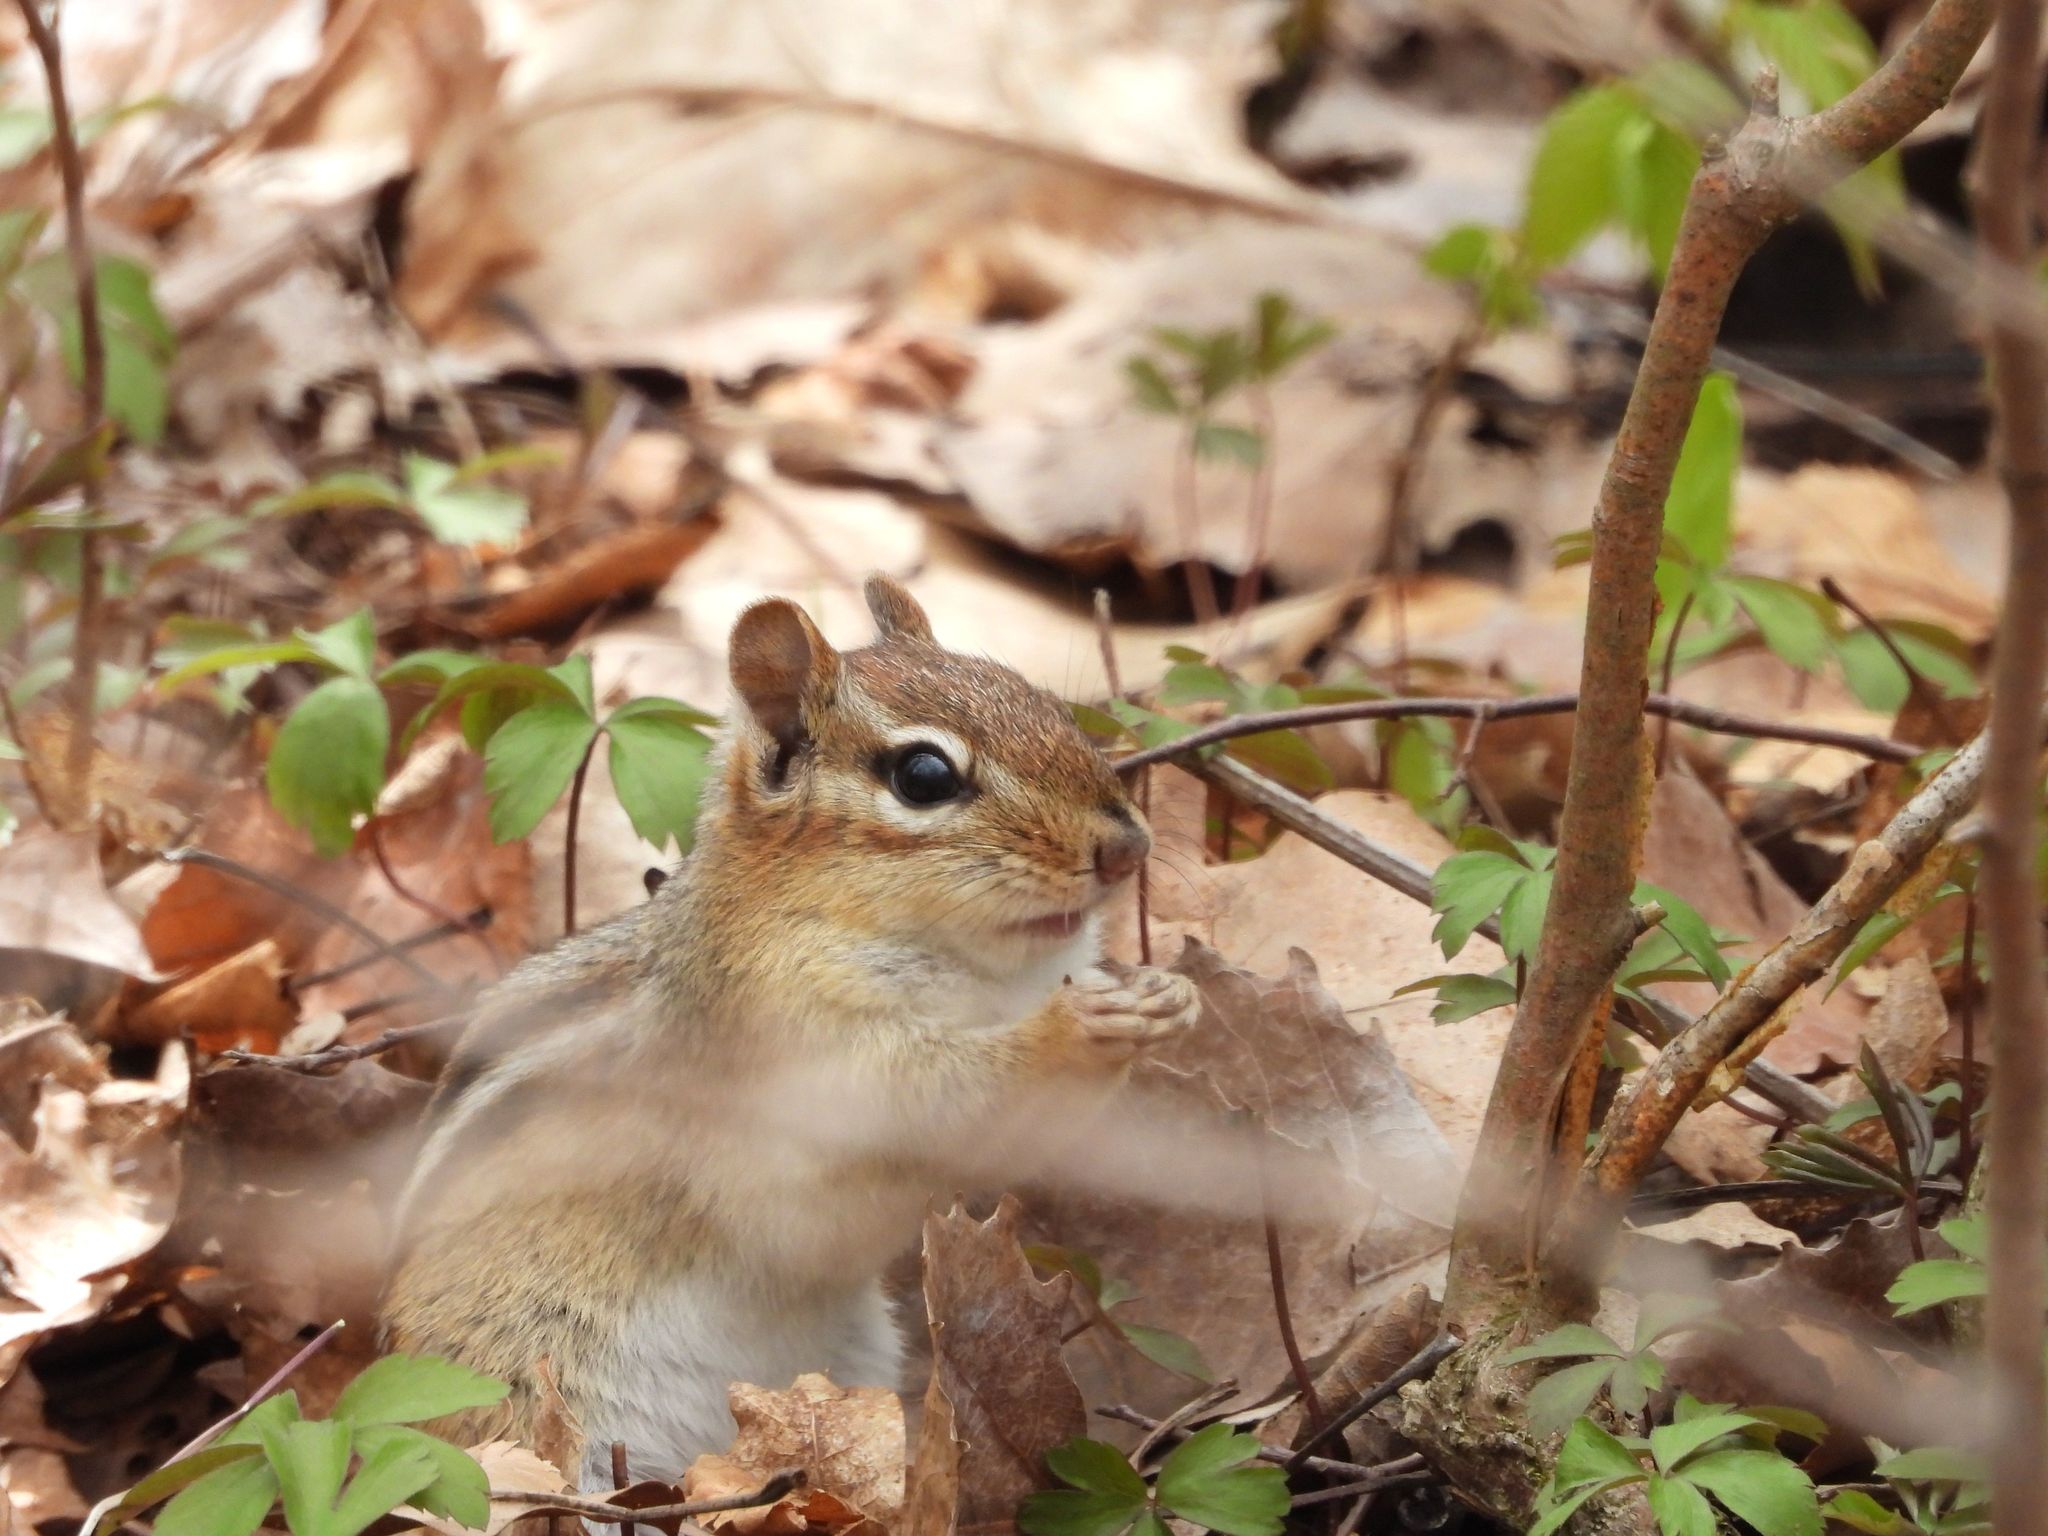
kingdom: Animalia
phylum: Chordata
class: Mammalia
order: Rodentia
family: Sciuridae
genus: Tamias
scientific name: Tamias striatus
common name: Eastern chipmunk
